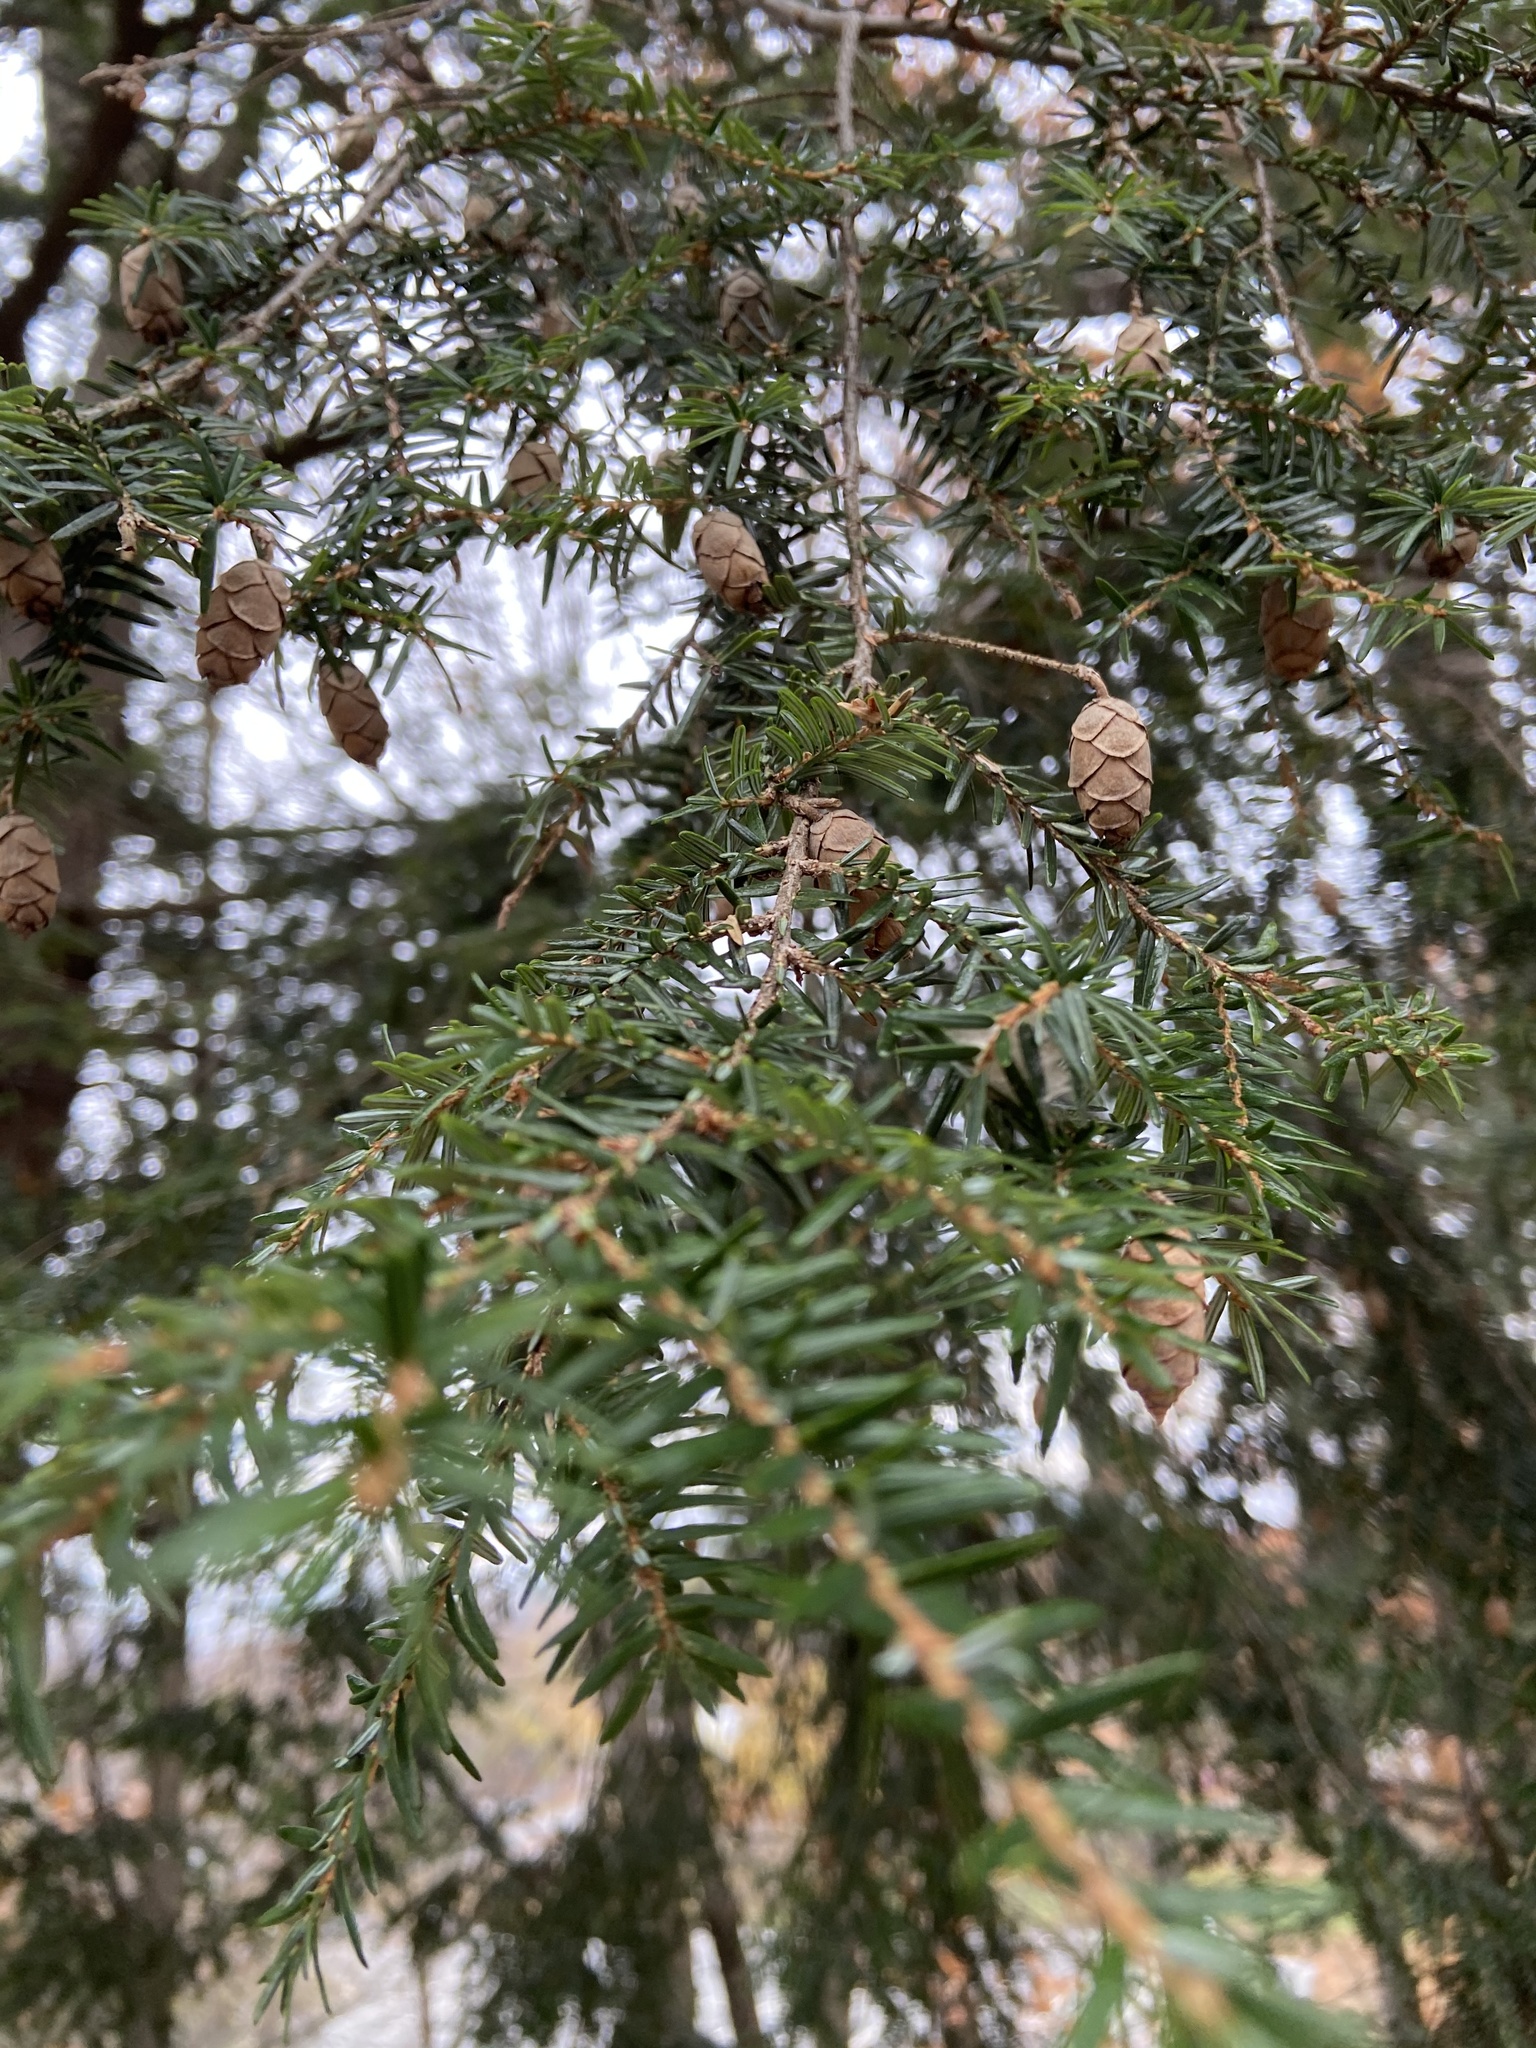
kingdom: Plantae
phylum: Tracheophyta
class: Pinopsida
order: Pinales
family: Pinaceae
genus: Tsuga
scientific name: Tsuga canadensis
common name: Eastern hemlock
